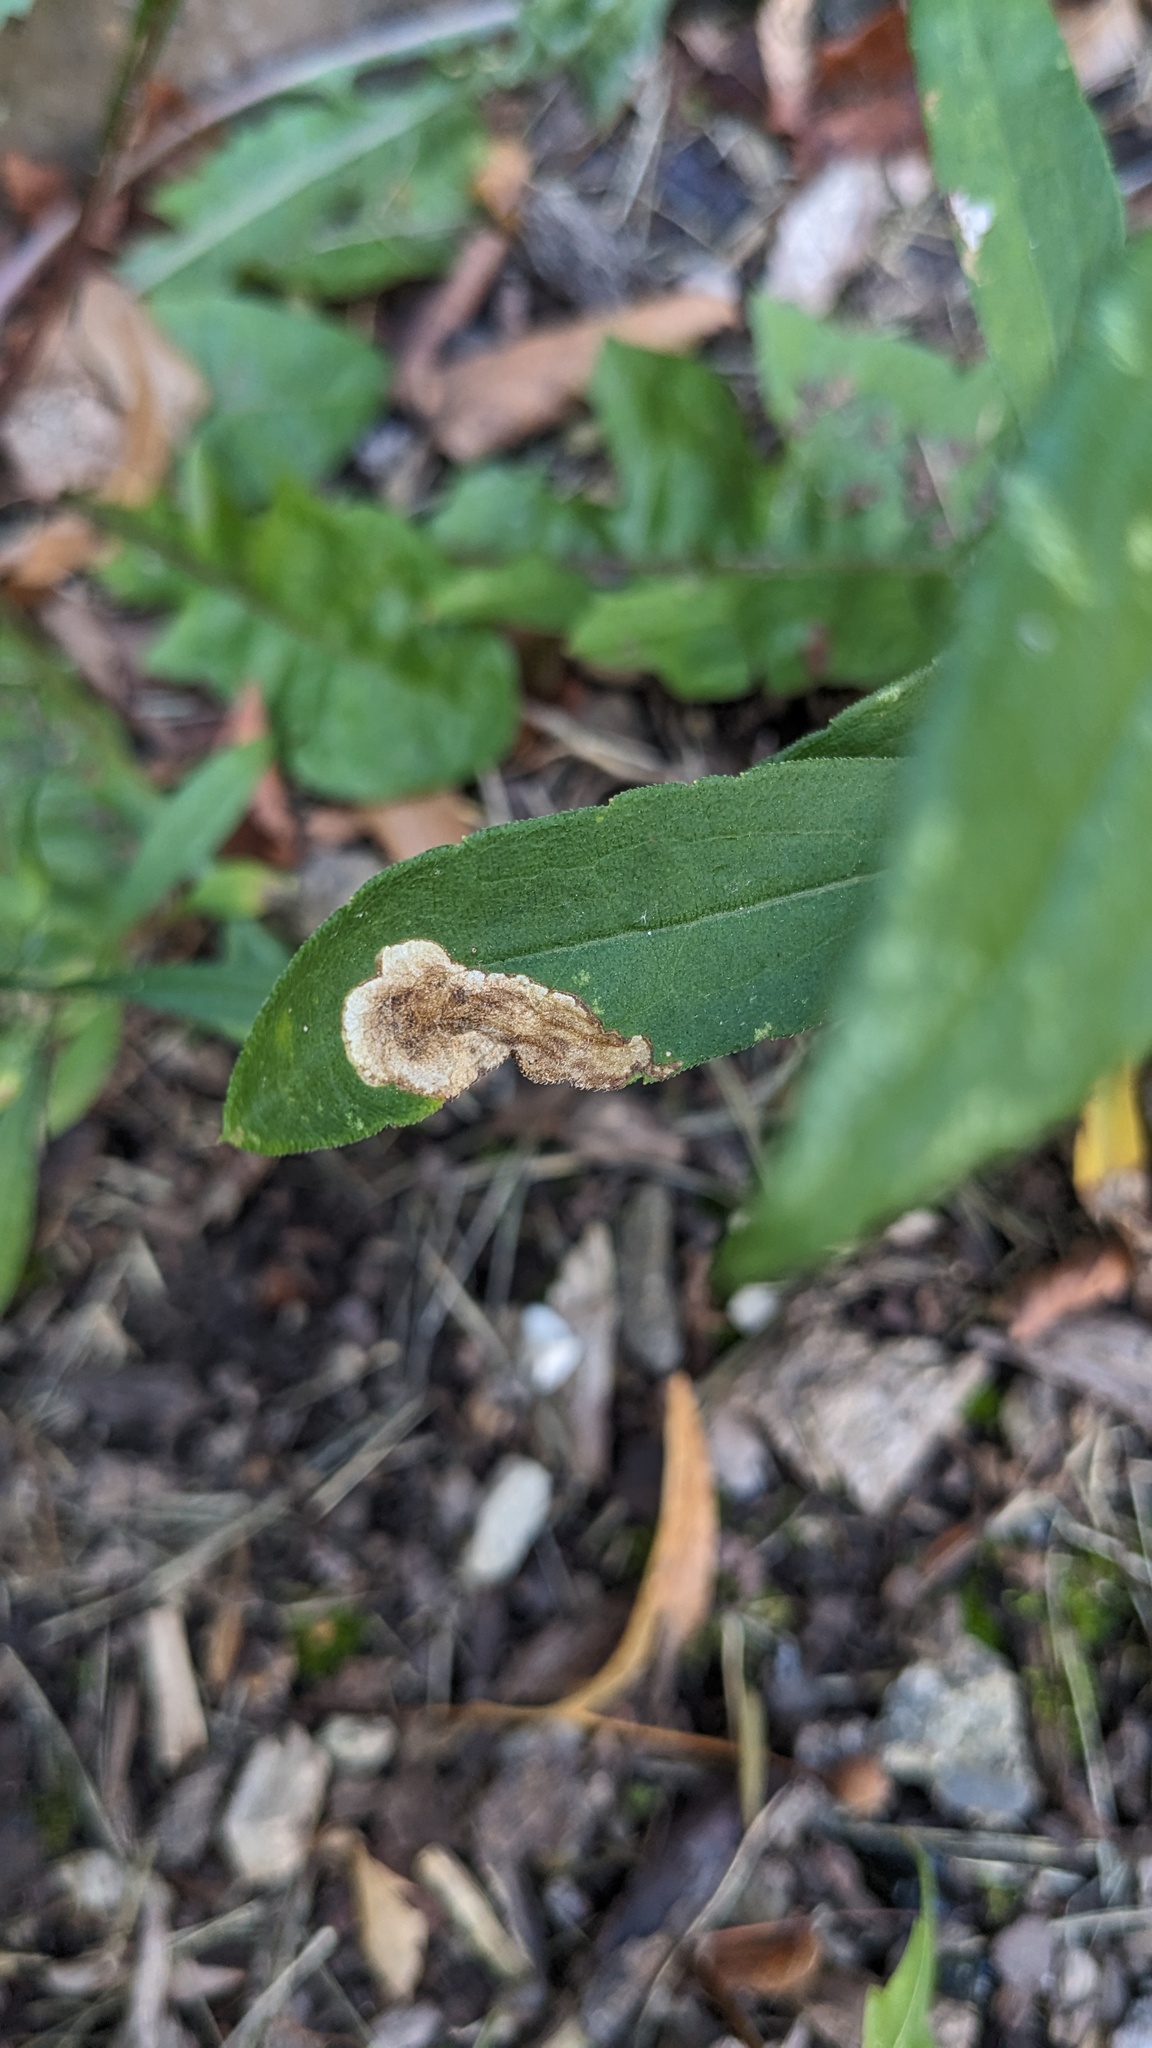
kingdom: Animalia
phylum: Arthropoda
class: Insecta
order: Diptera
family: Agromyzidae
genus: Nemorimyza
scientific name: Nemorimyza posticata
